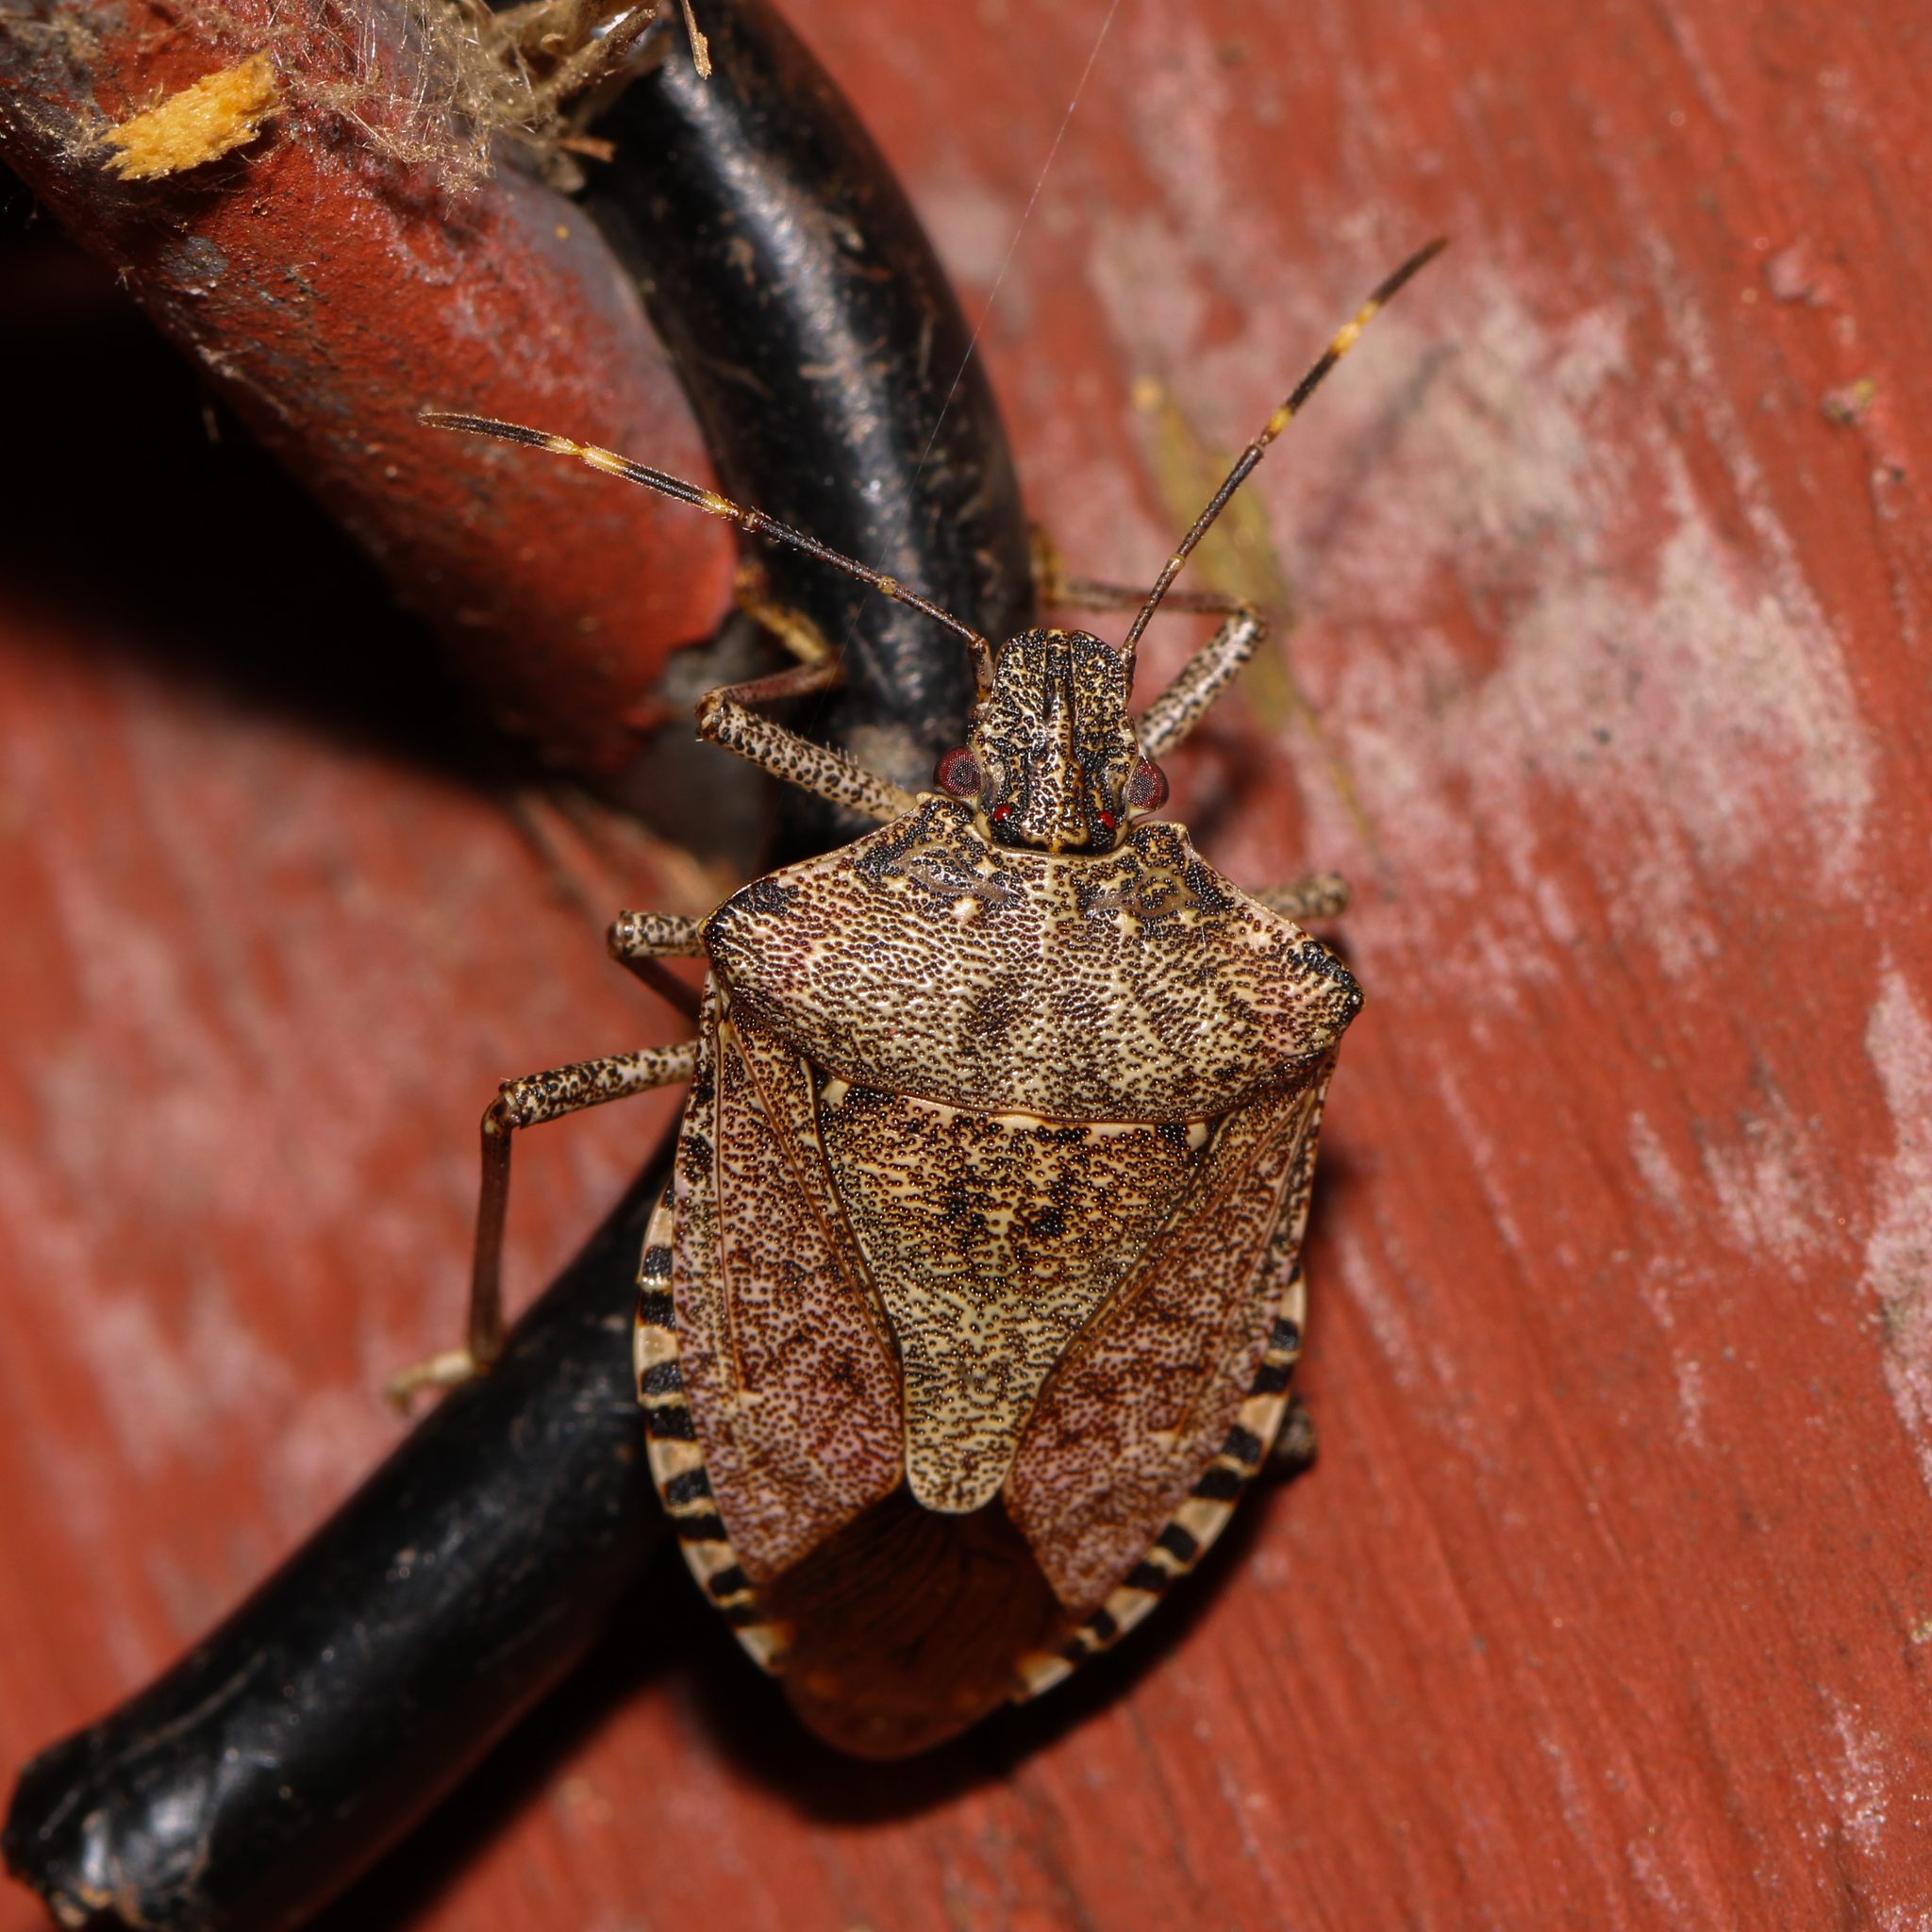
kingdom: Animalia
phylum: Arthropoda
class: Insecta
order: Hemiptera
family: Pentatomidae
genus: Halyomorpha
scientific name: Halyomorpha halys
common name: Brown marmorated stink bug
